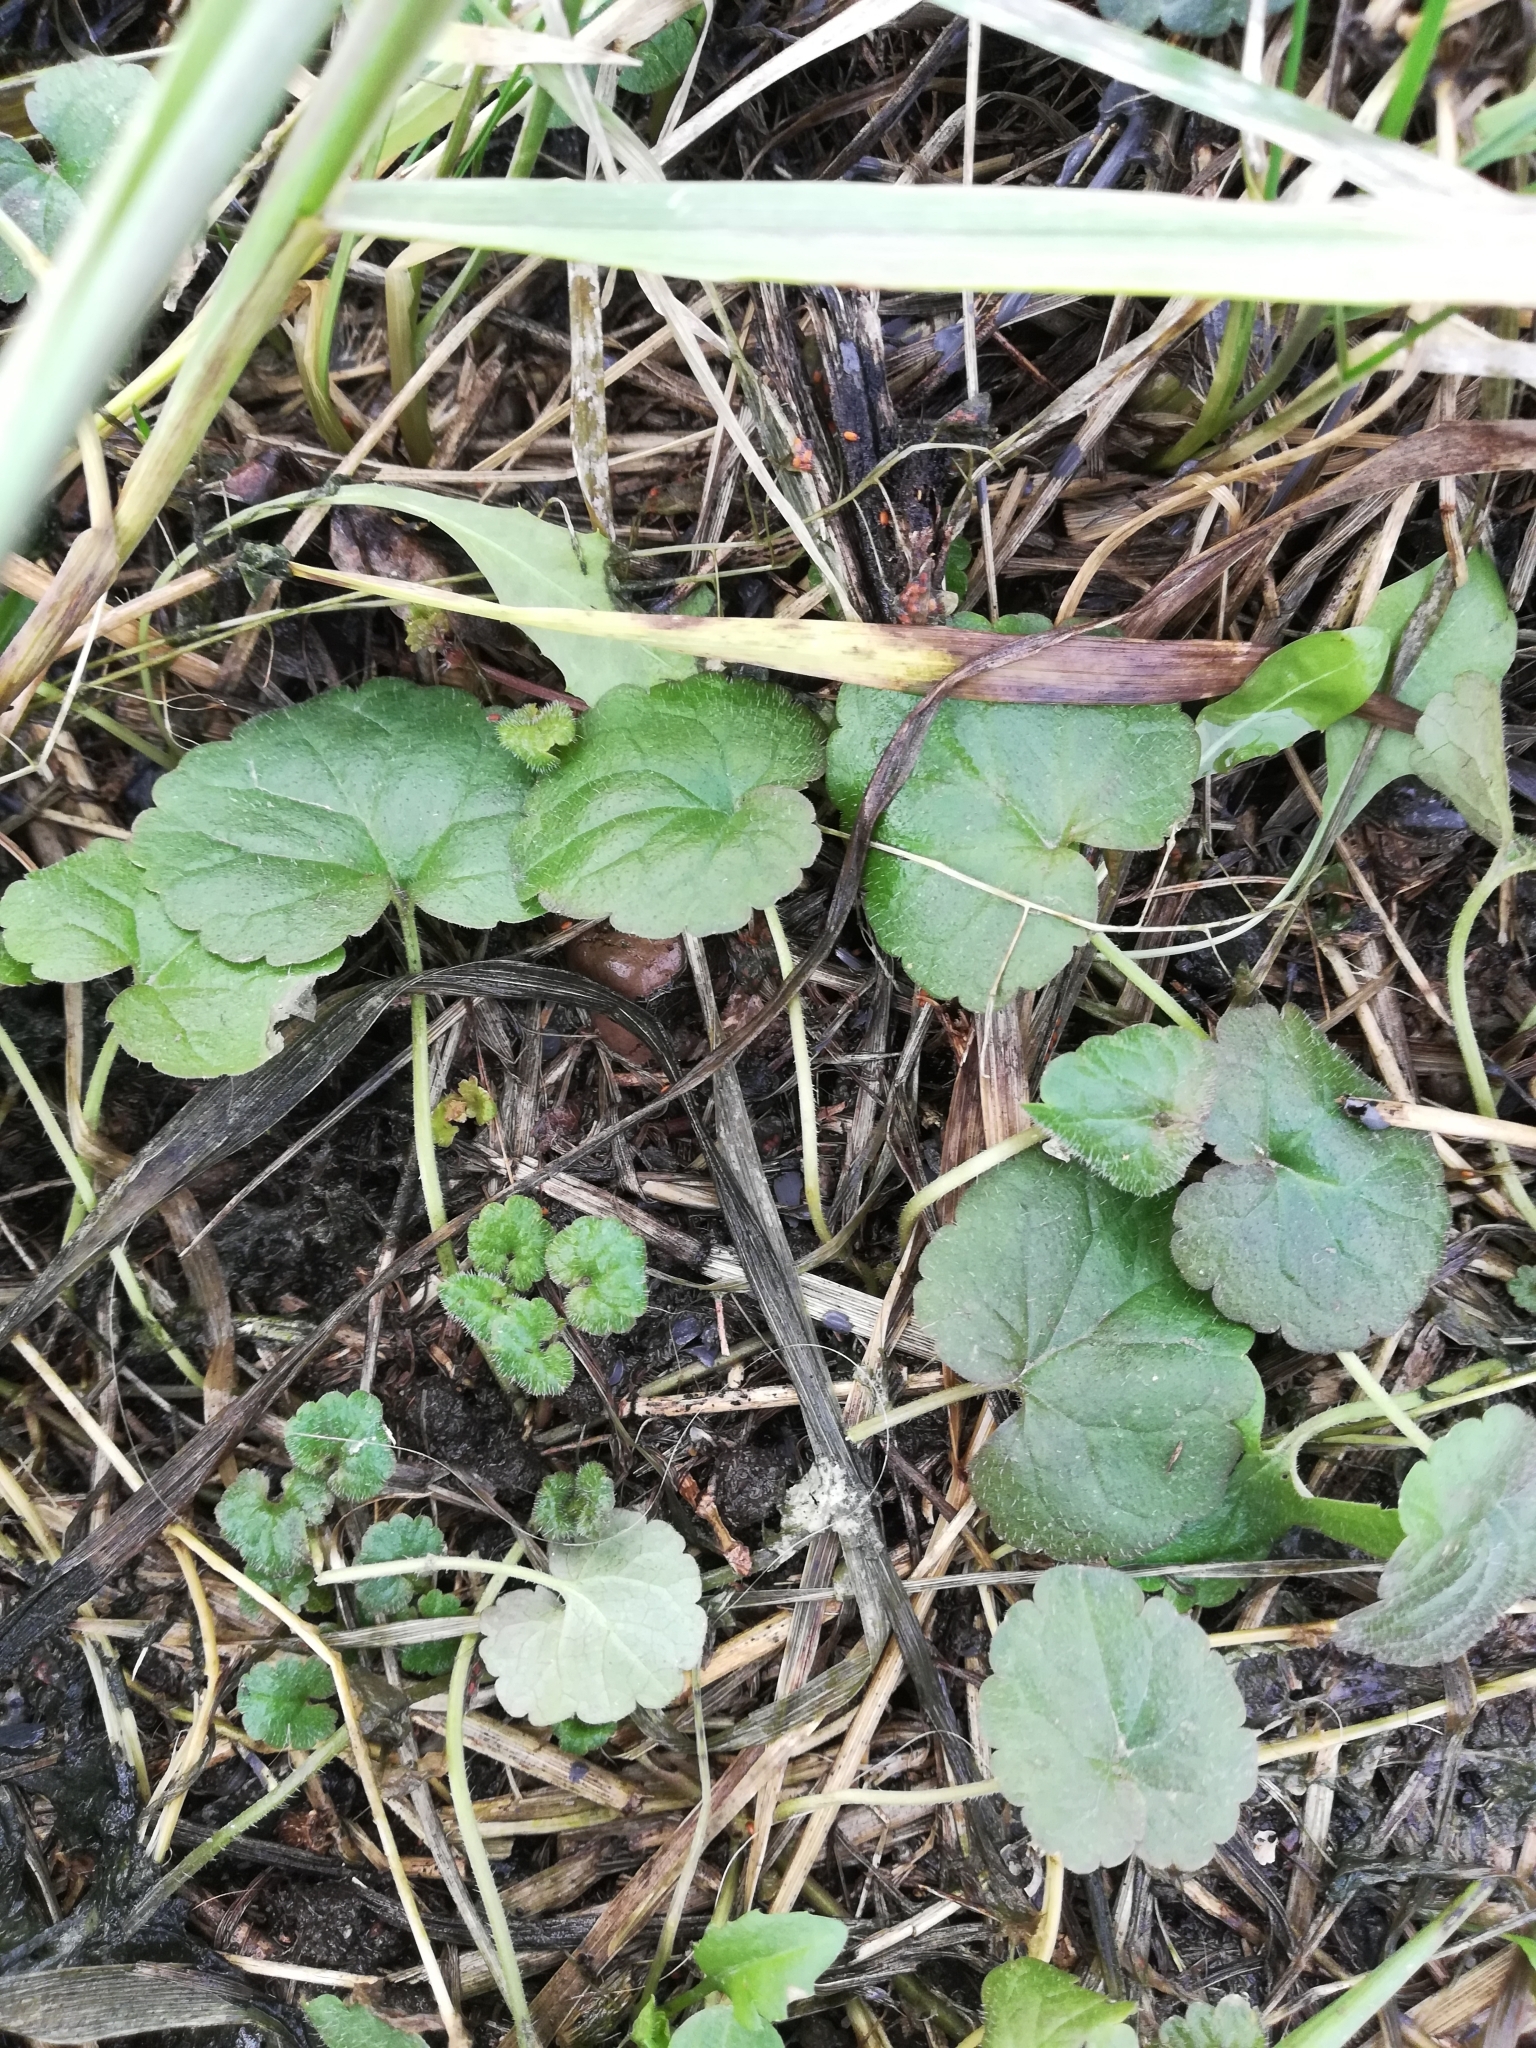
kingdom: Plantae
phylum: Tracheophyta
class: Magnoliopsida
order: Lamiales
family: Lamiaceae
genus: Glechoma
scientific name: Glechoma hederacea
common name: Ground ivy
